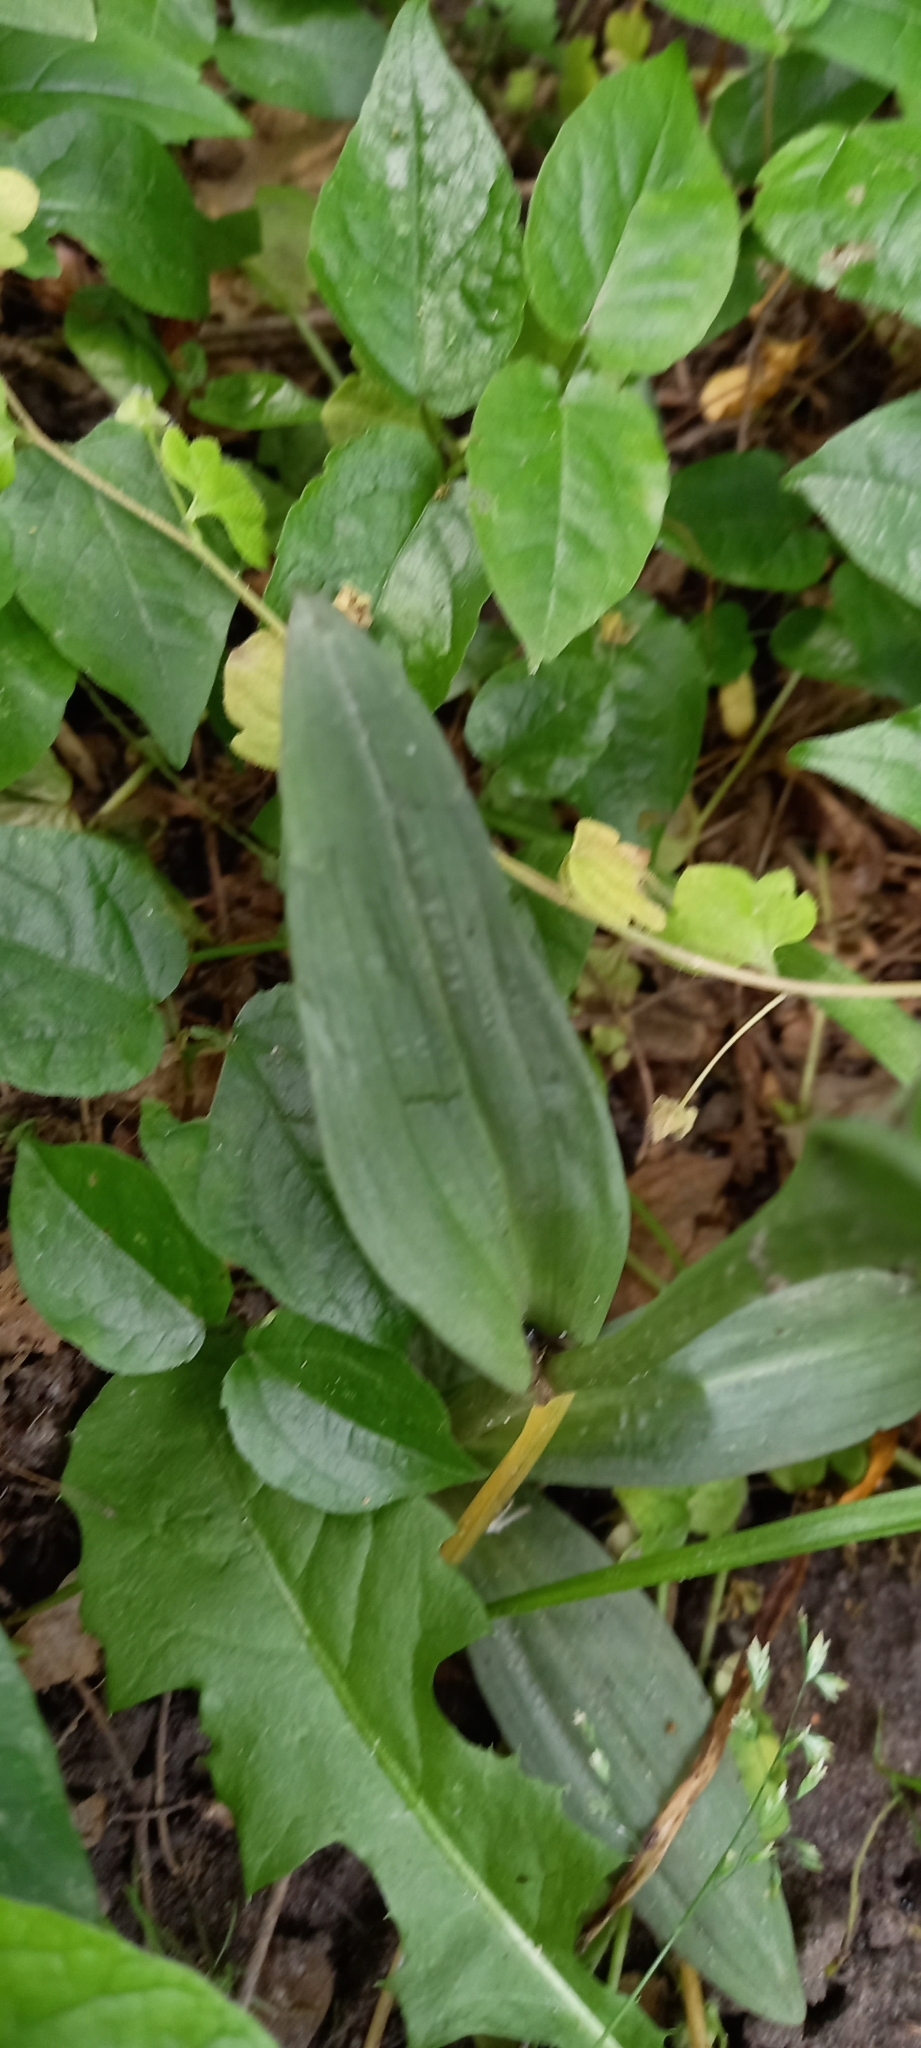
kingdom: Plantae
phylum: Tracheophyta
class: Liliopsida
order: Asparagales
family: Orchidaceae
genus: Neotinea
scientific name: Neotinea tridentata
